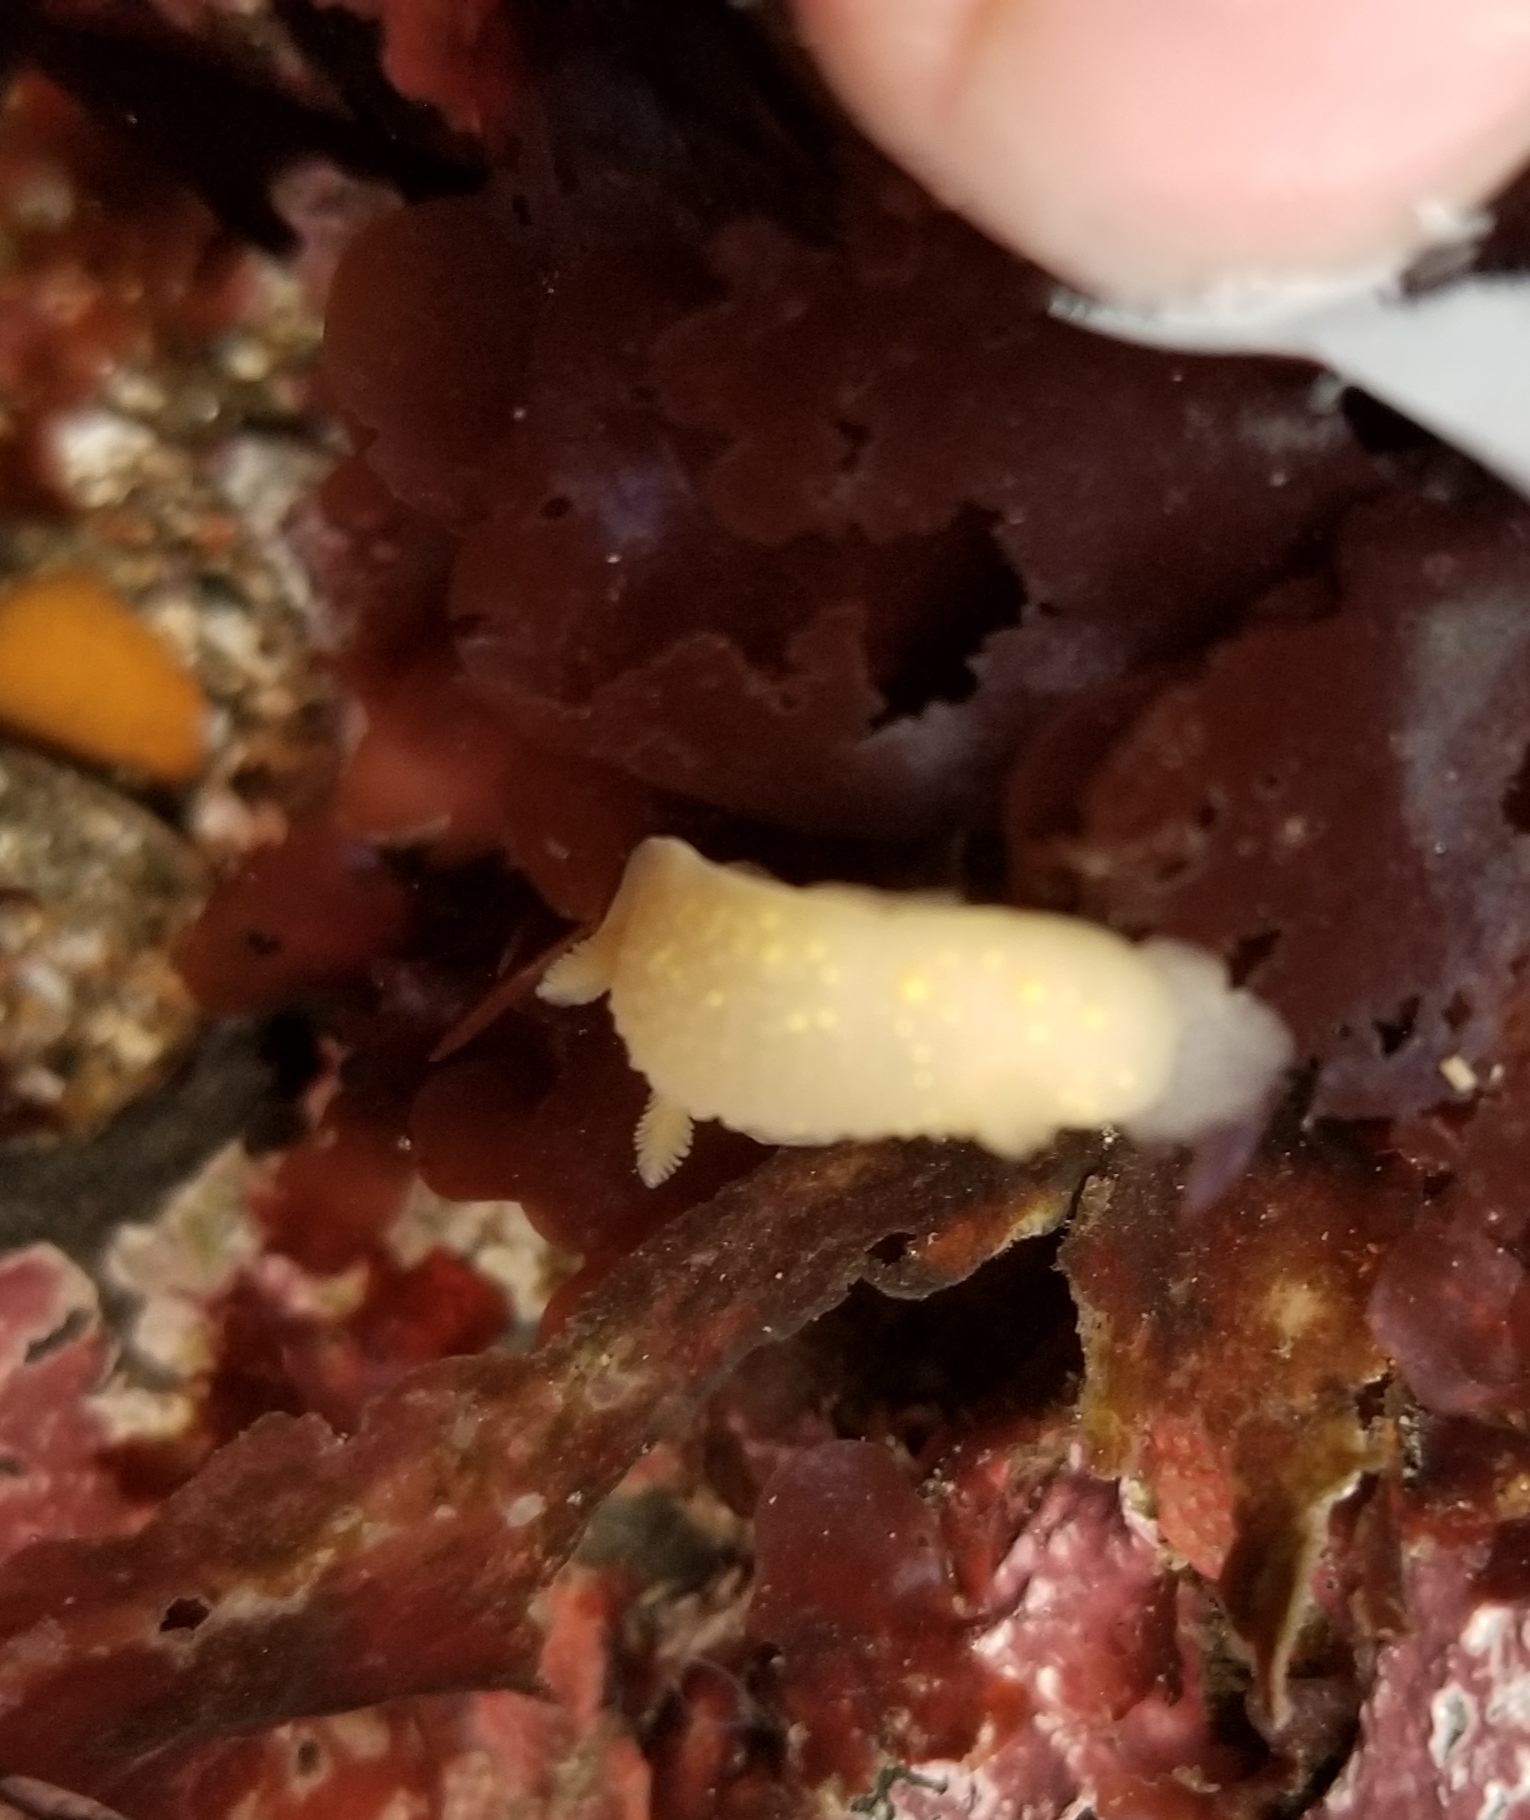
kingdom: Animalia
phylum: Mollusca
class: Gastropoda
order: Nudibranchia
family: Cadlinidae
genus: Cadlina
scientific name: Cadlina modesta
